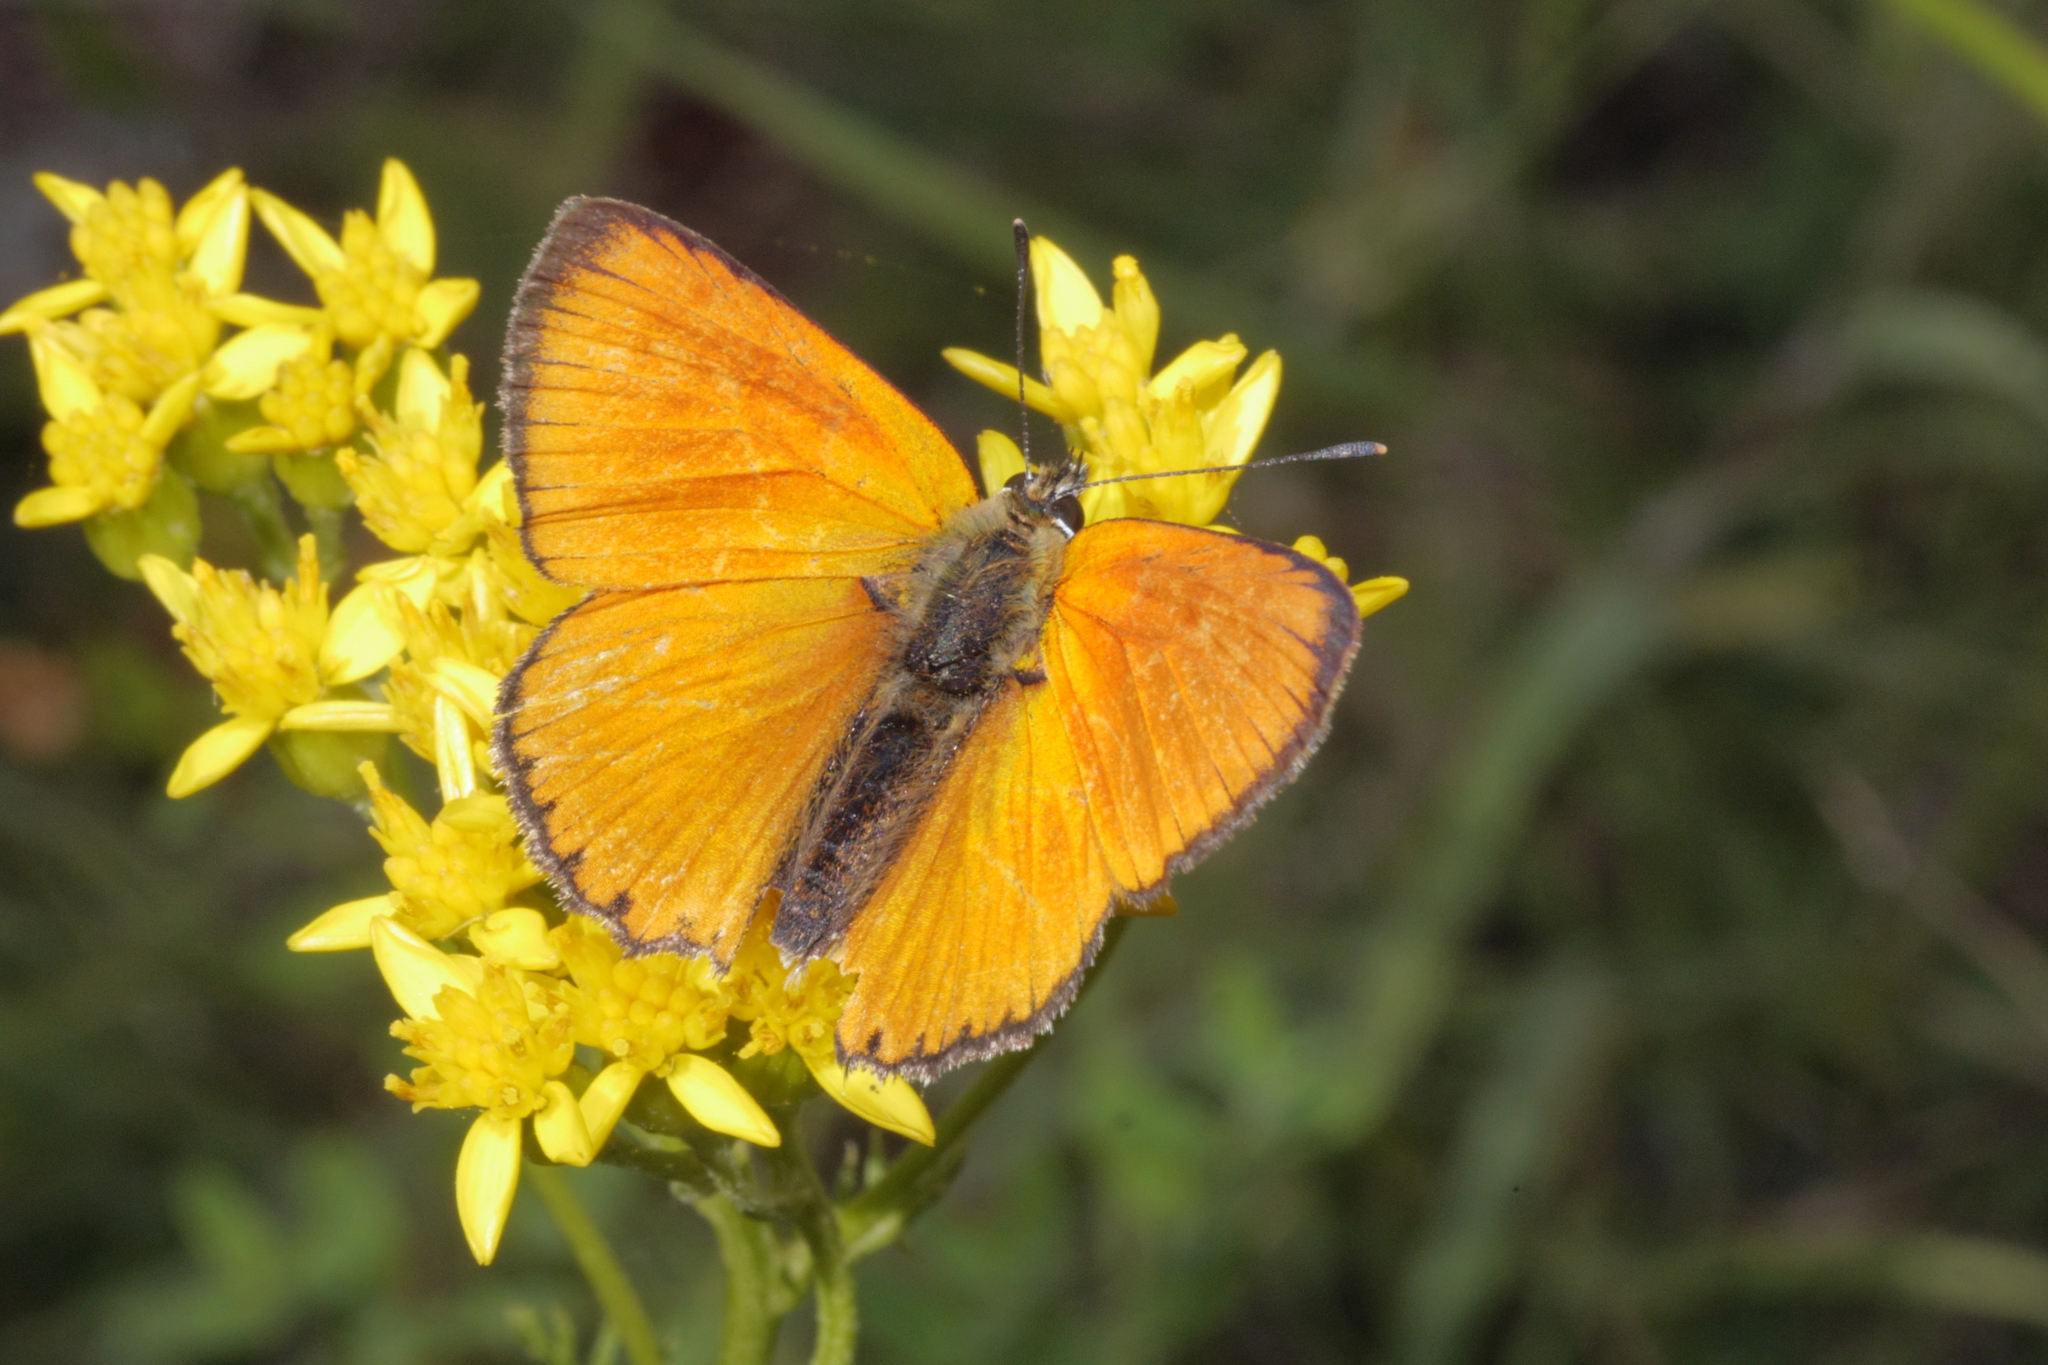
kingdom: Animalia
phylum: Arthropoda
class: Insecta
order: Lepidoptera
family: Lycaenidae
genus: Lycaena
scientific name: Lycaena virgaureae
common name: Scarce copper
